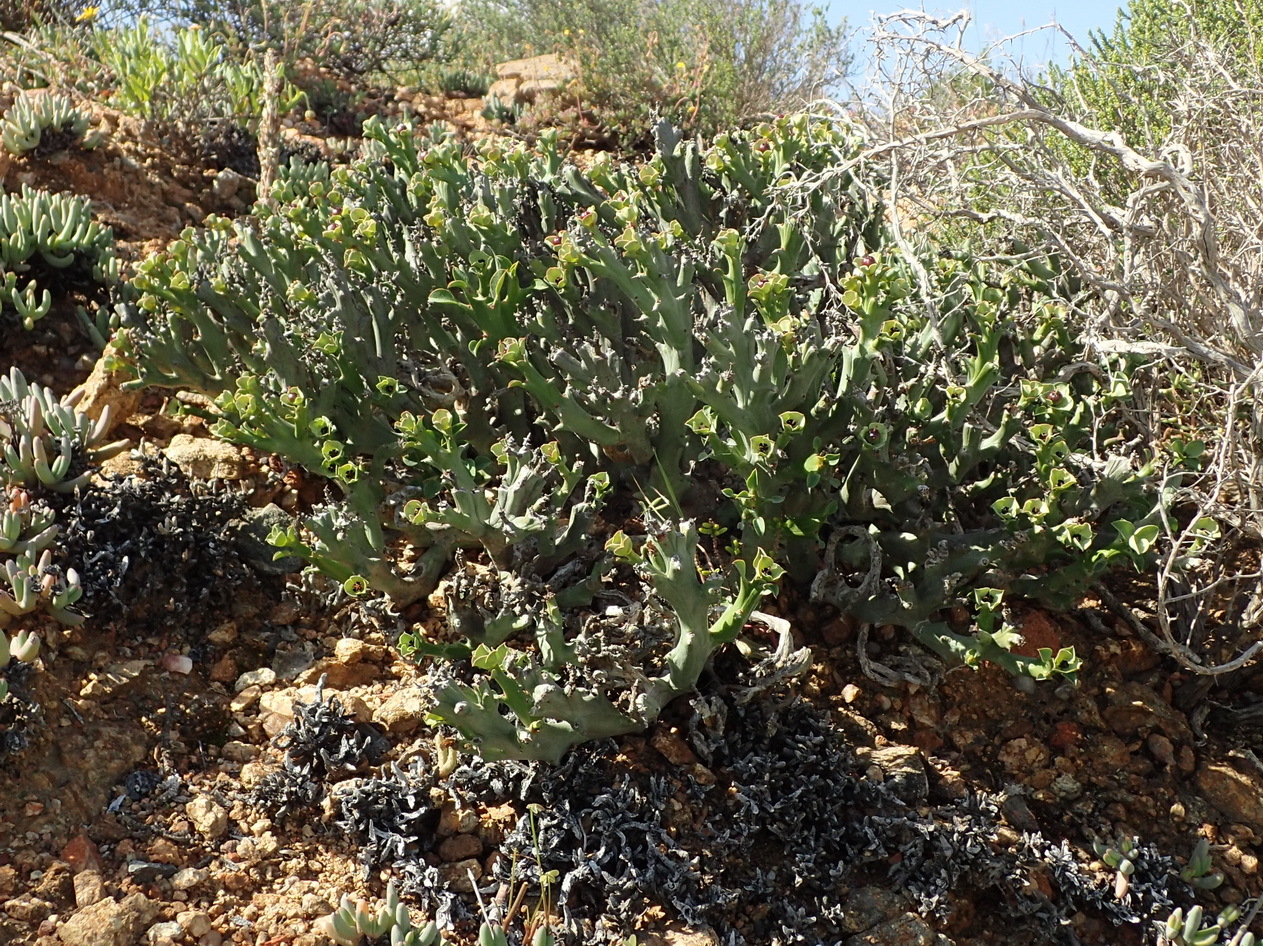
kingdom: Plantae
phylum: Tracheophyta
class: Magnoliopsida
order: Malpighiales
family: Euphorbiaceae
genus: Euphorbia
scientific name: Euphorbia hamata
